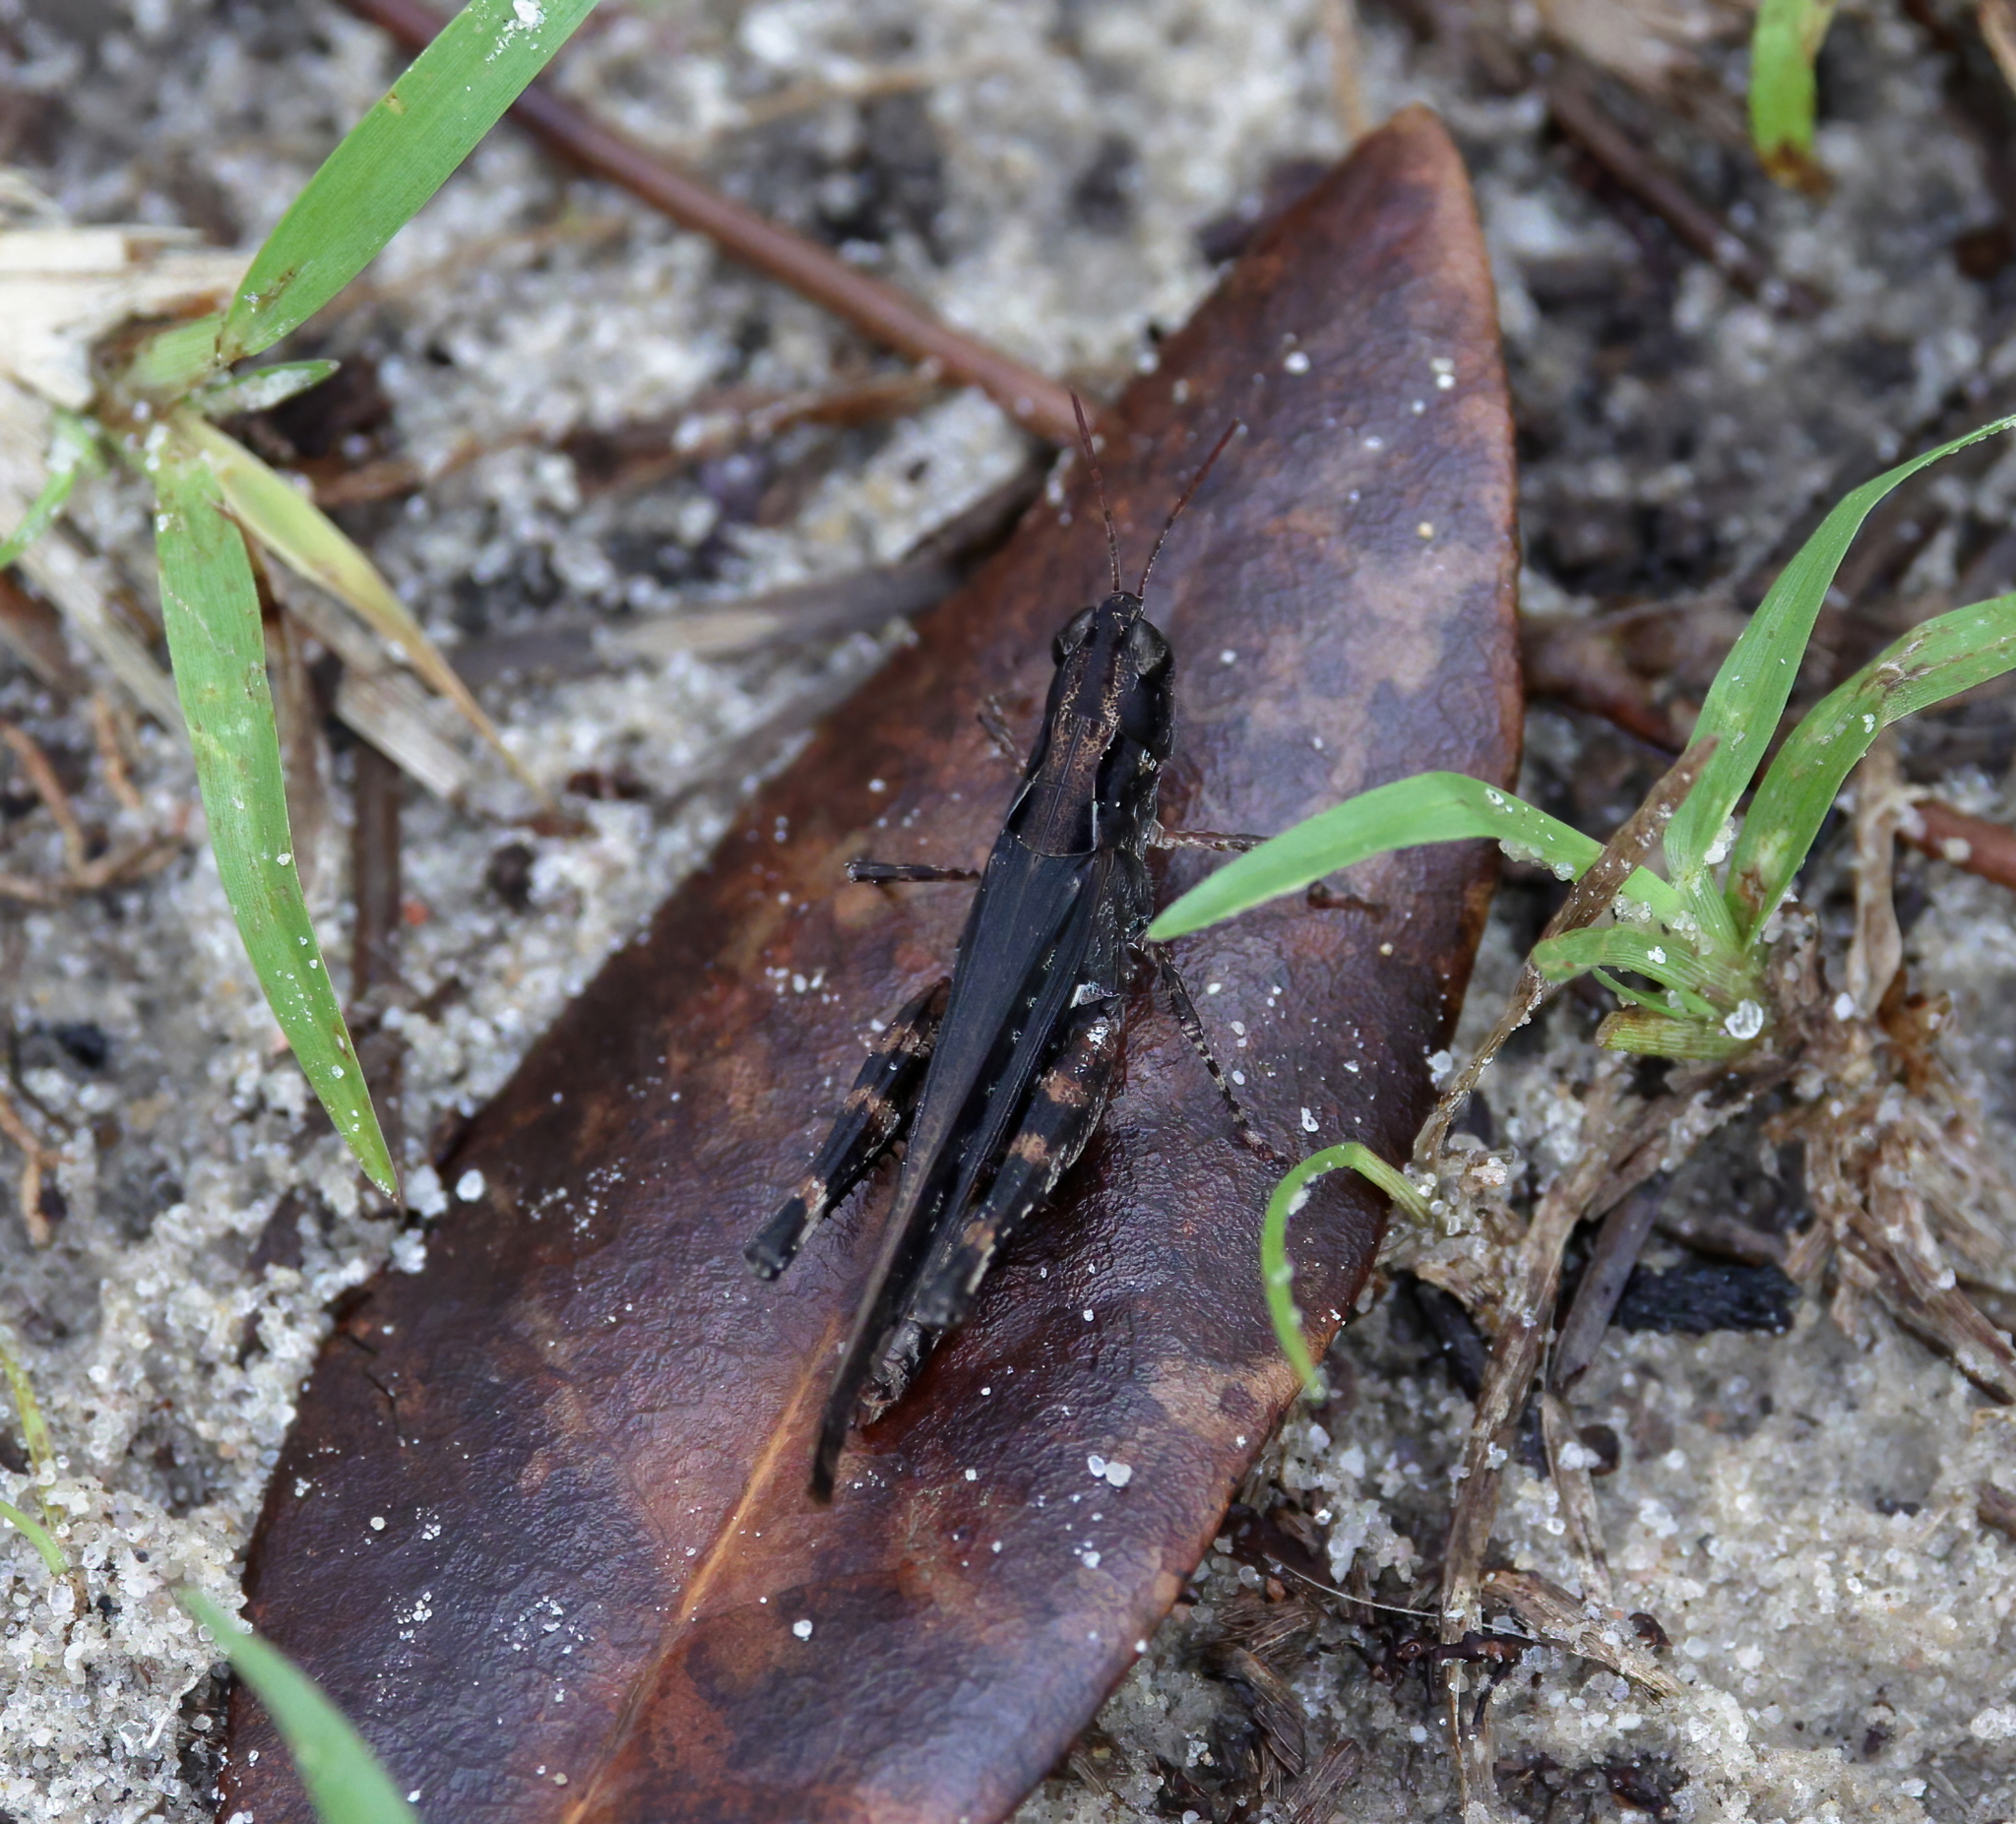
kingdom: Animalia
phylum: Arthropoda
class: Insecta
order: Orthoptera
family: Acrididae
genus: Orphulella
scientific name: Orphulella pelidna
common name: Spotted-wing grasshopper
